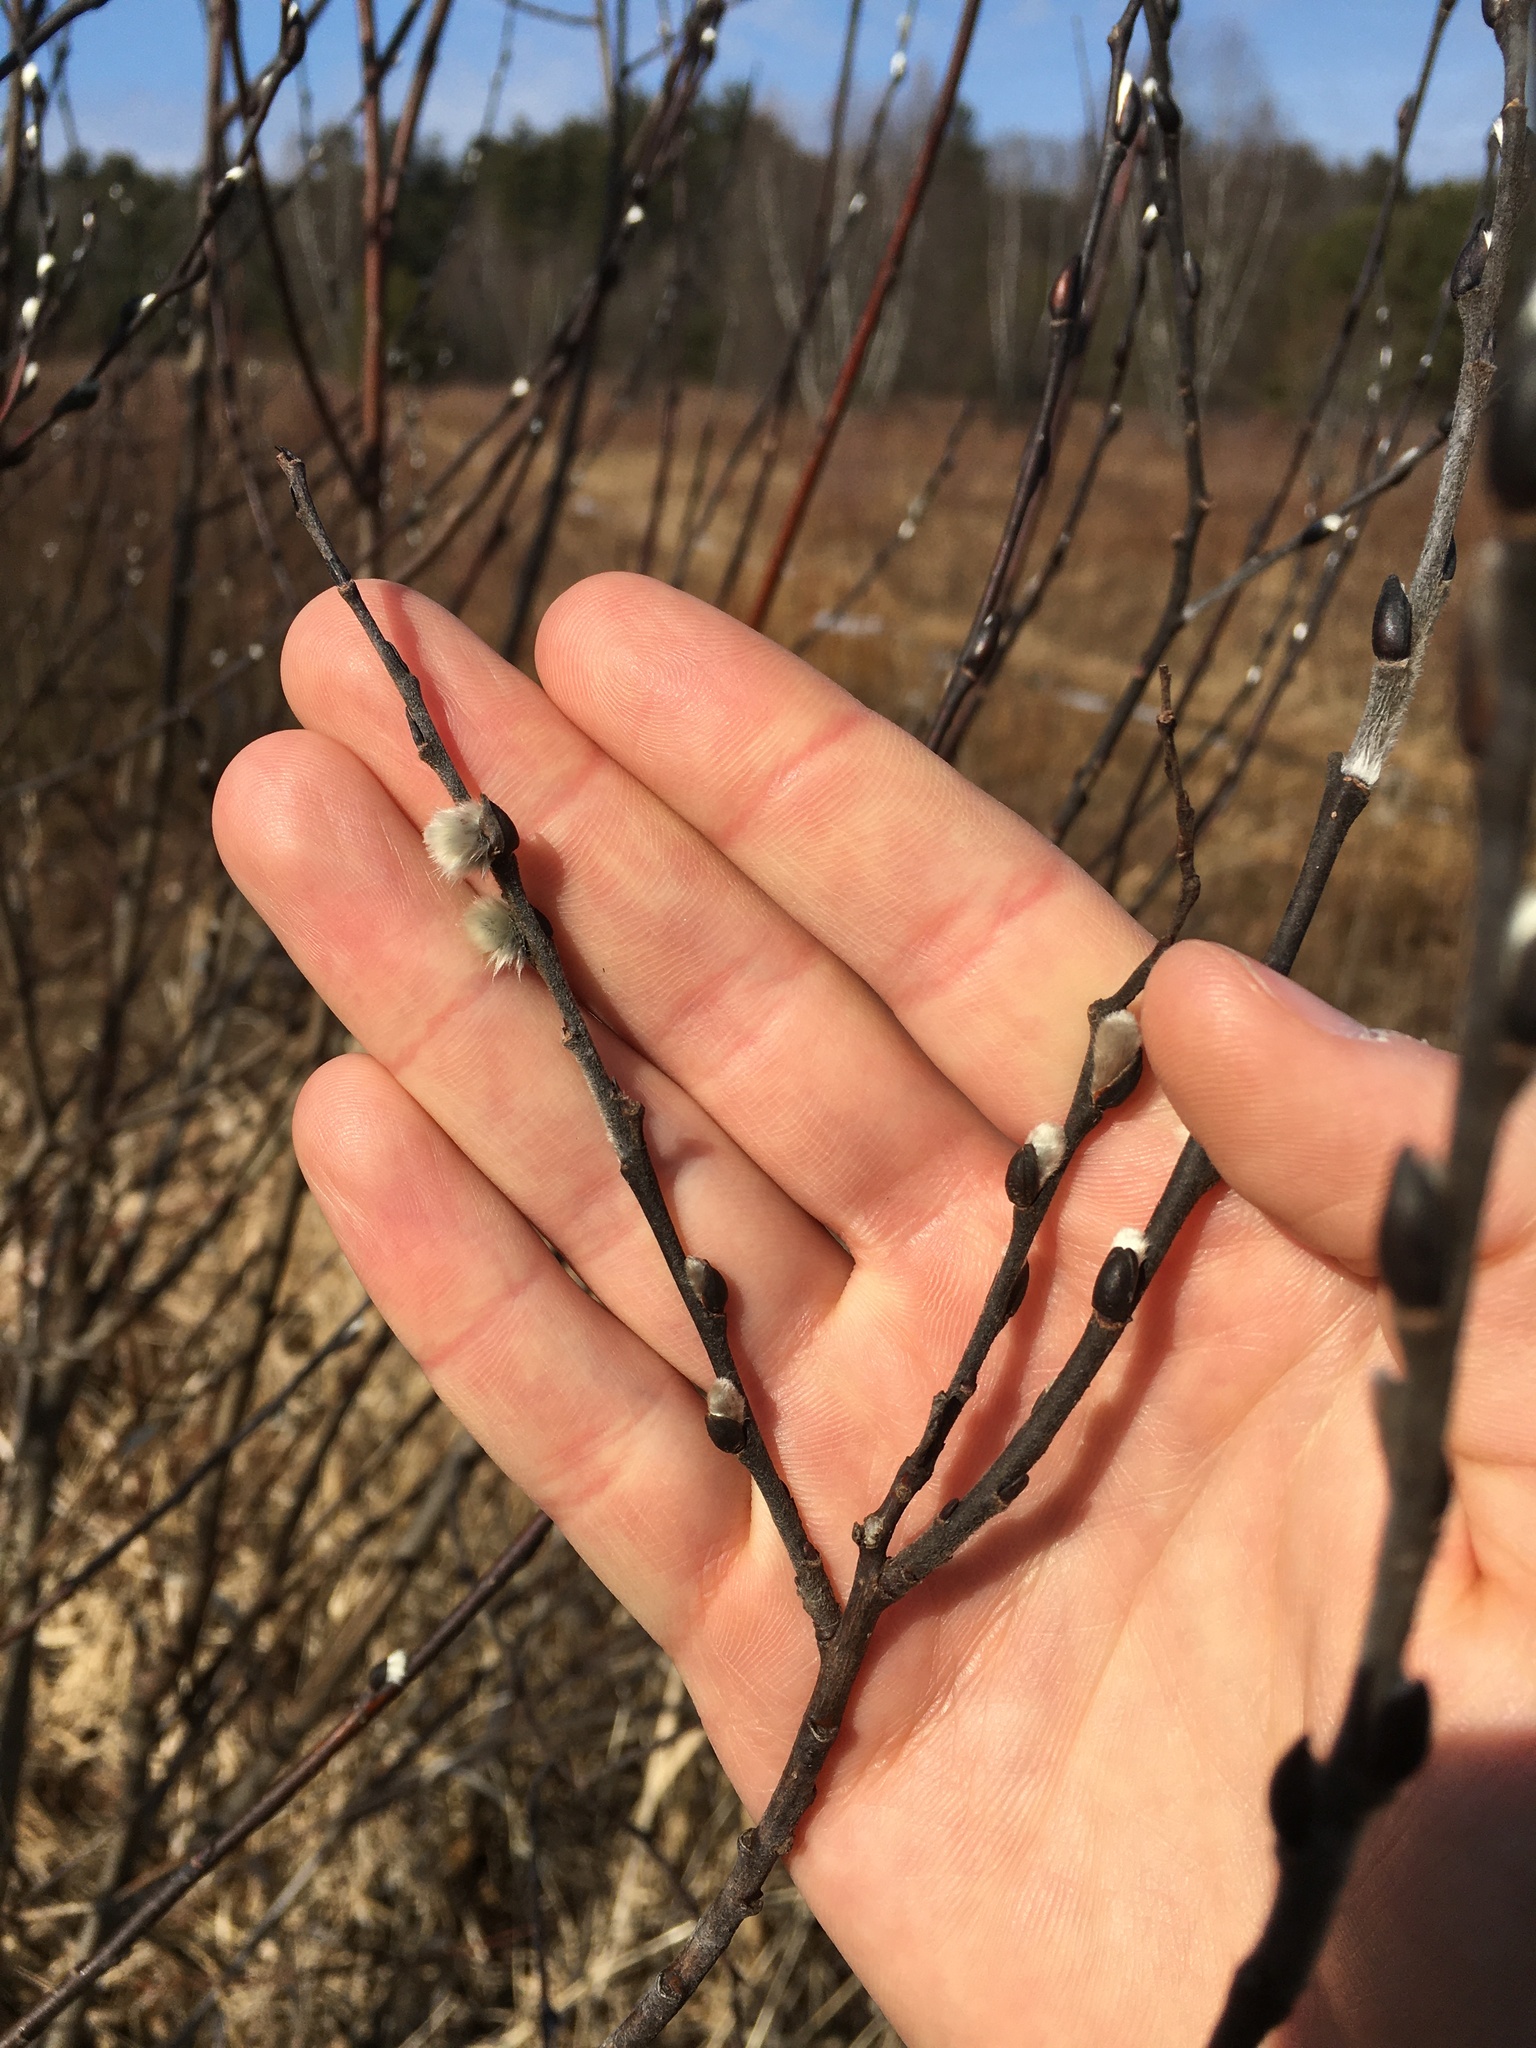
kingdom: Plantae
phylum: Tracheophyta
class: Magnoliopsida
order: Malpighiales
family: Salicaceae
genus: Salix
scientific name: Salix discolor
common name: Glaucous willow
